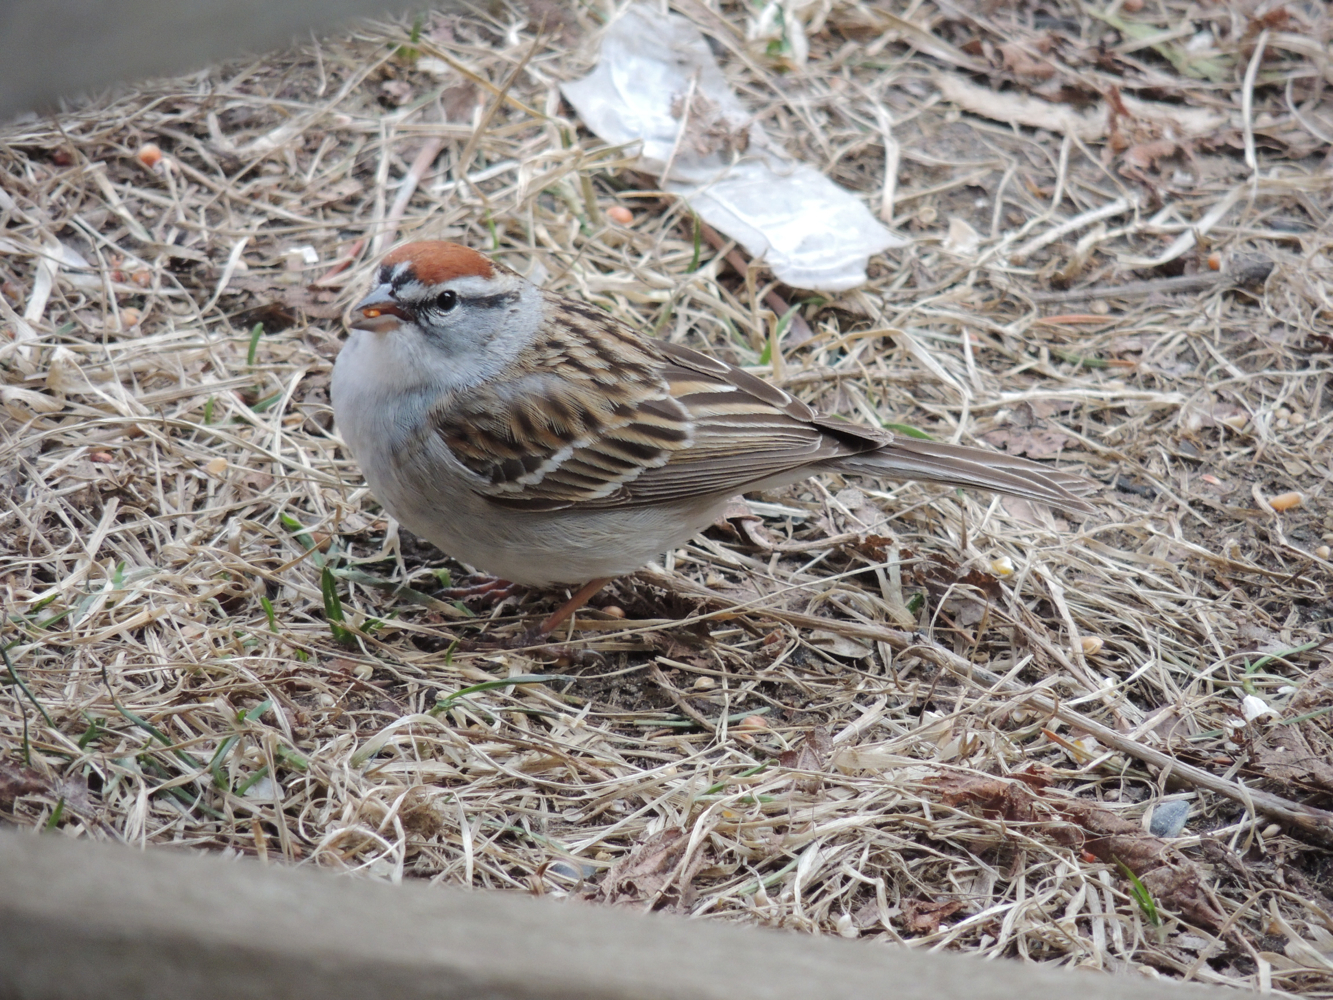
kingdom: Animalia
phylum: Chordata
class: Aves
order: Passeriformes
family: Passerellidae
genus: Spizella
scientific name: Spizella passerina
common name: Chipping sparrow
